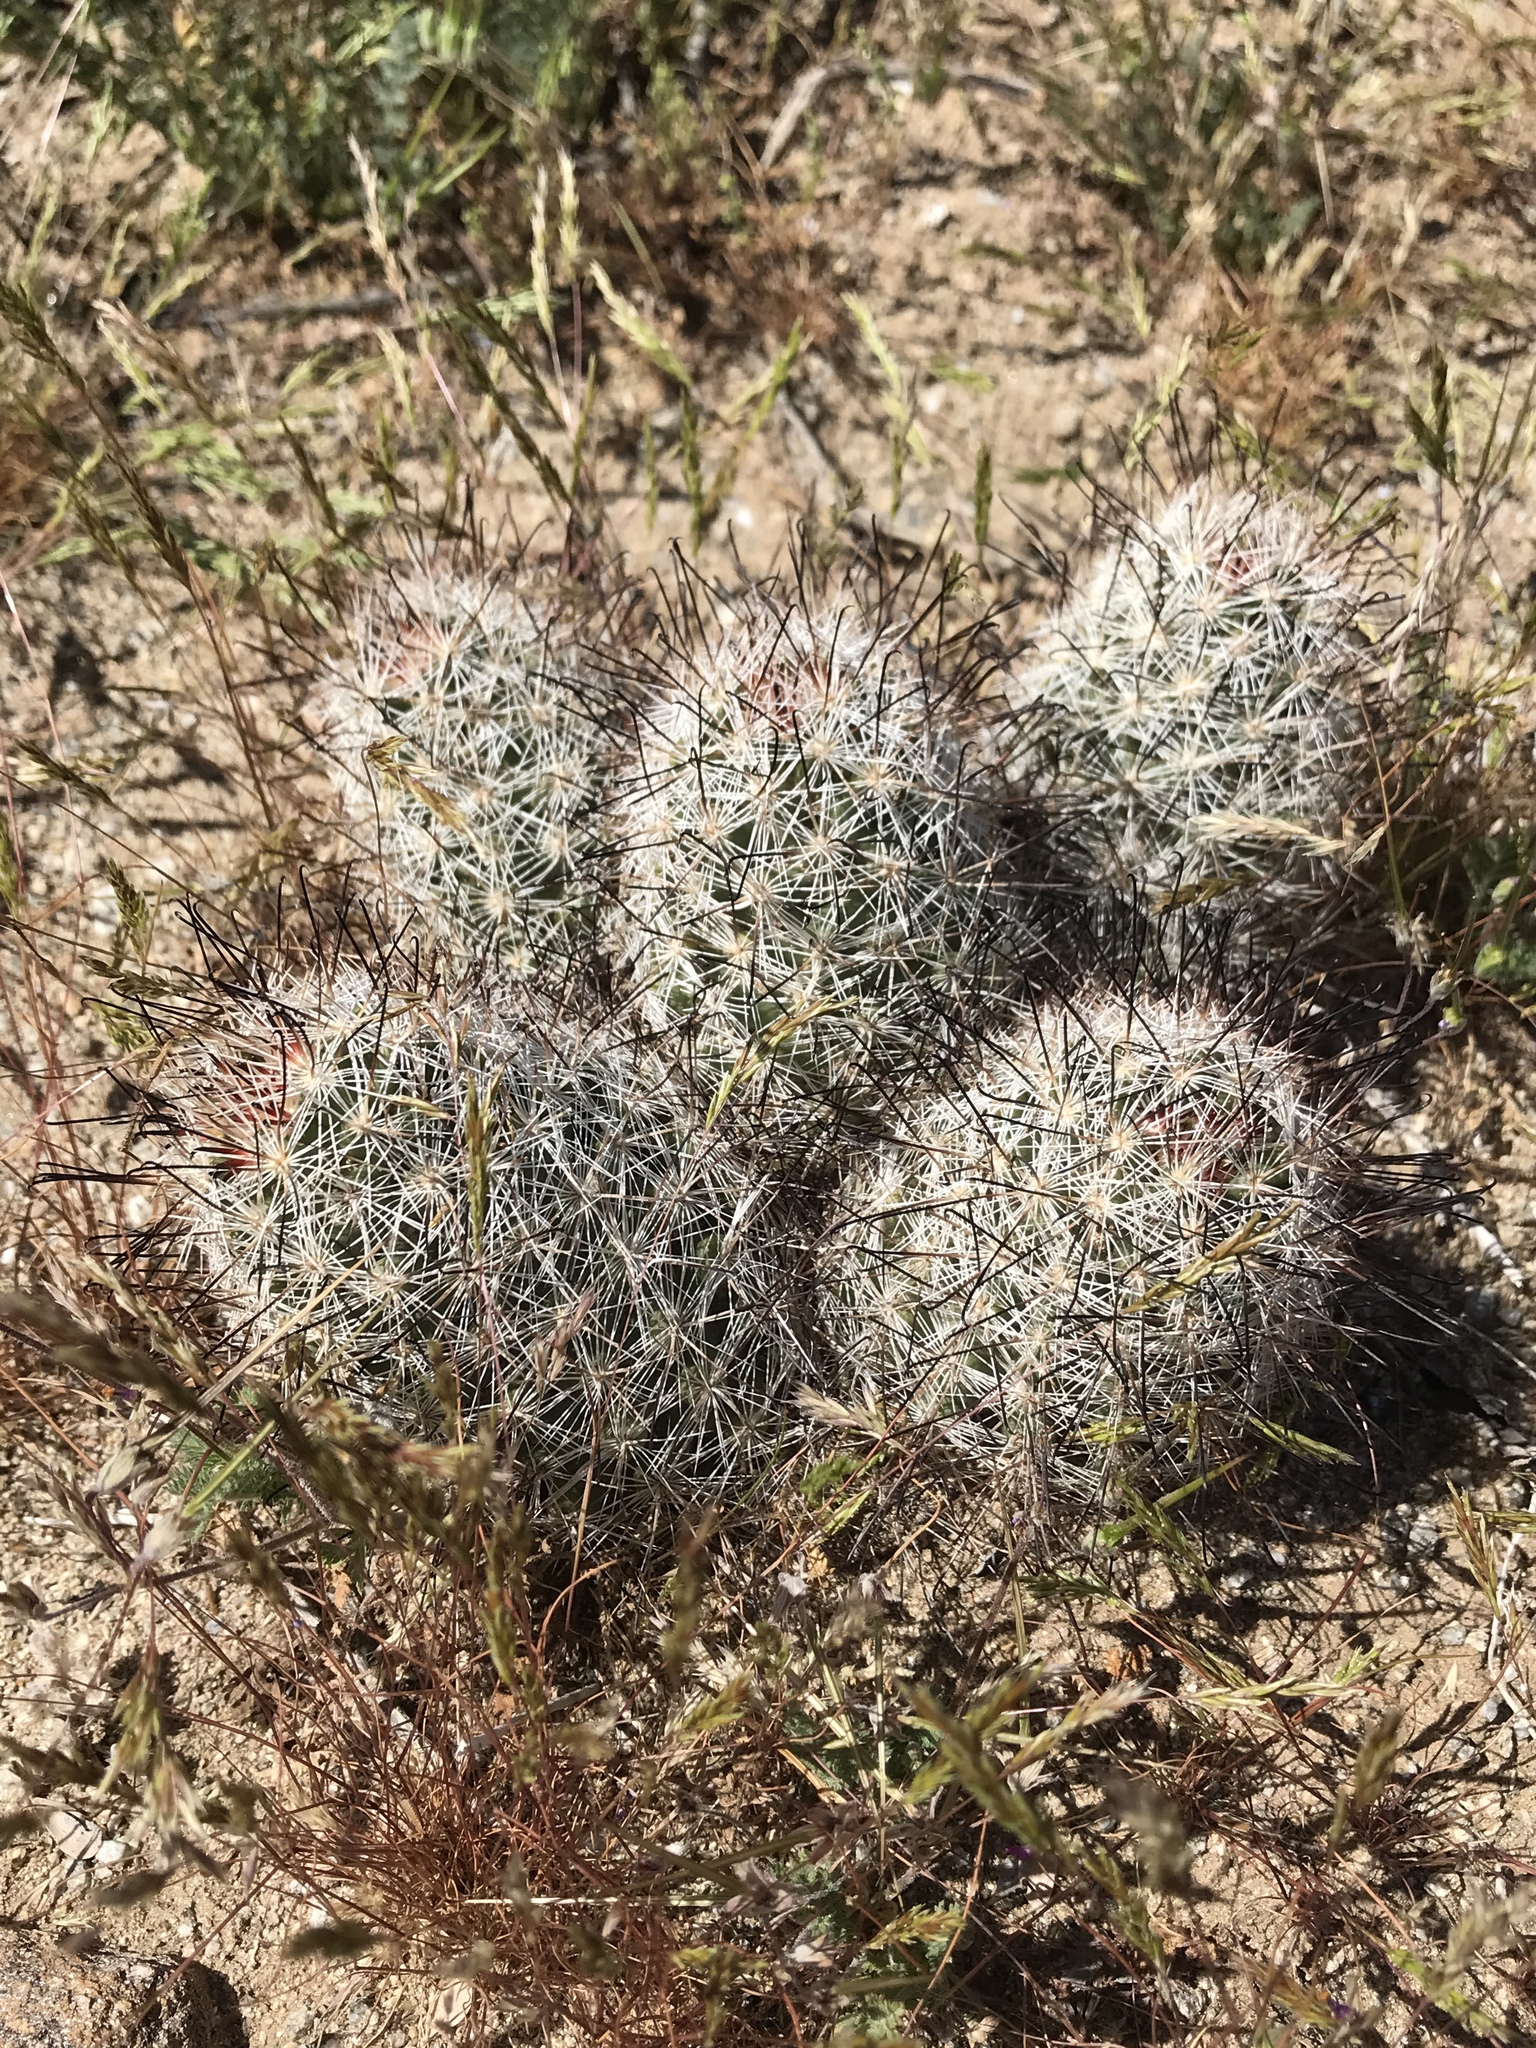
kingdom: Plantae
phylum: Tracheophyta
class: Magnoliopsida
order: Caryophyllales
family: Cactaceae
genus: Cochemiea
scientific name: Cochemiea tetrancistra
